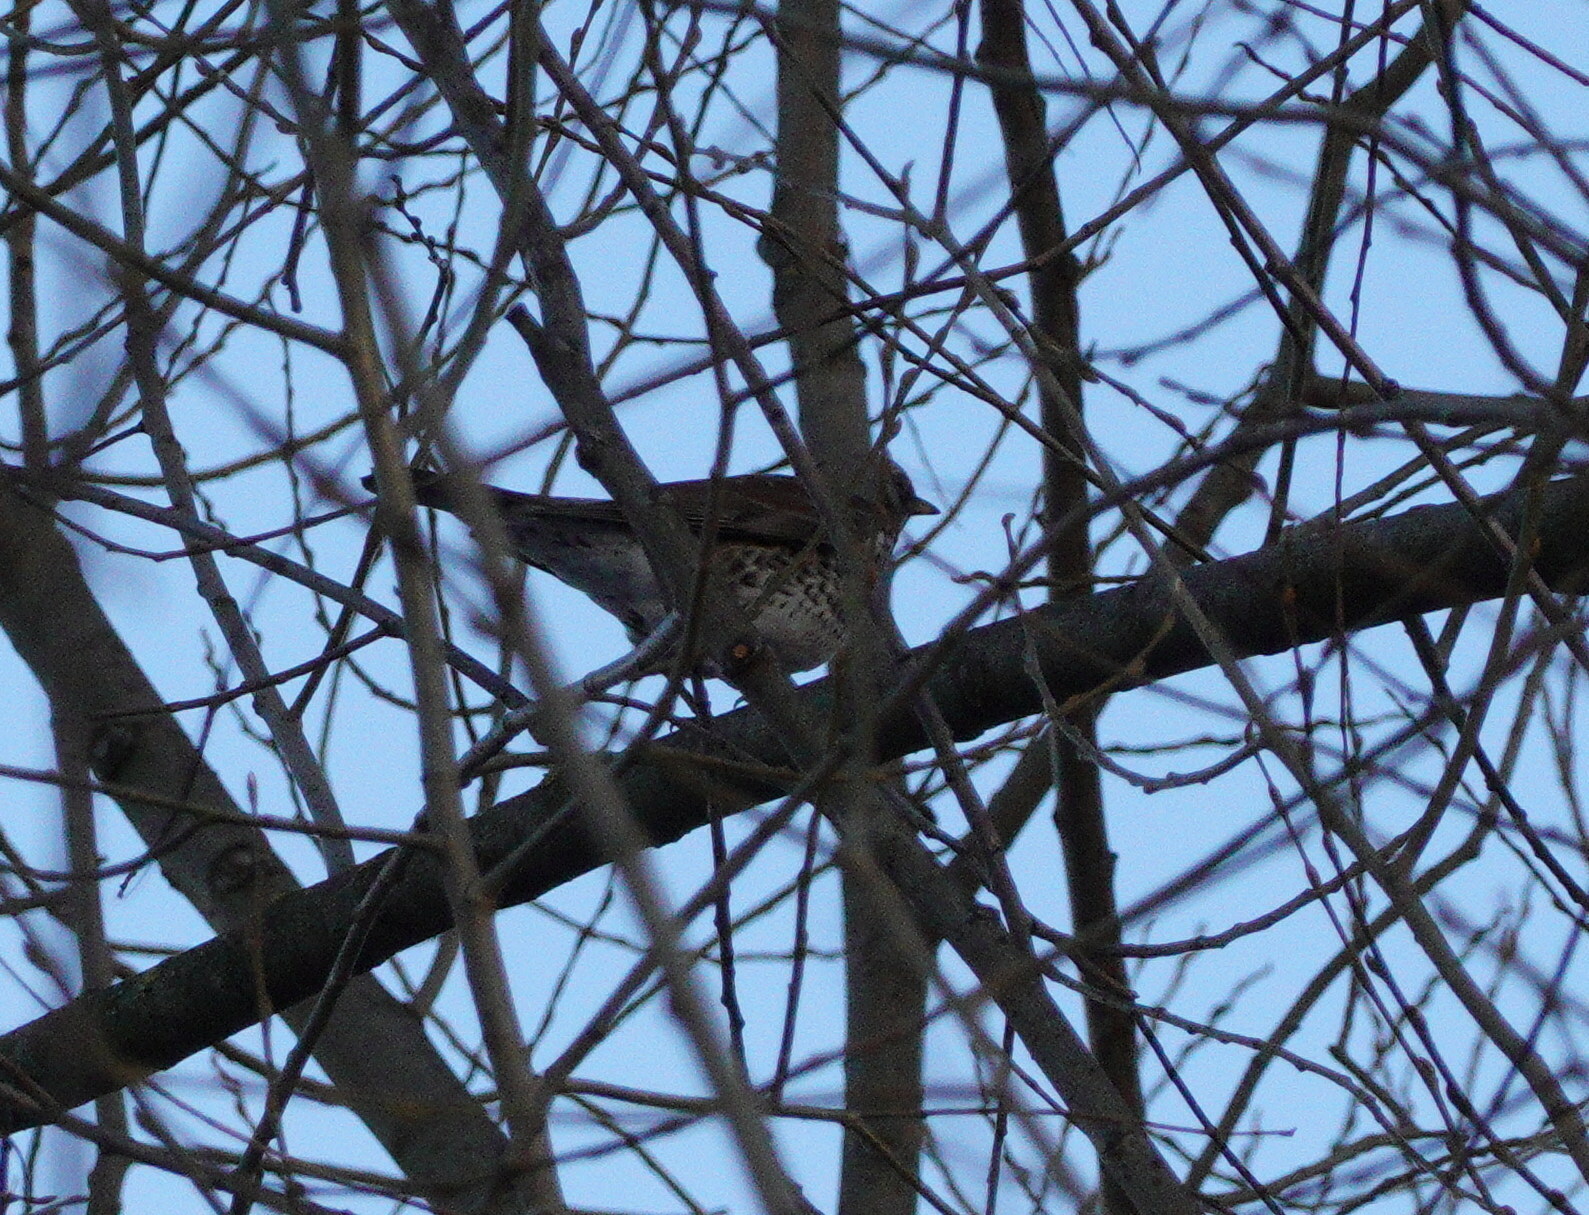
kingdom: Animalia
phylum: Chordata
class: Aves
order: Passeriformes
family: Turdidae
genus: Turdus
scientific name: Turdus pilaris
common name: Fieldfare
